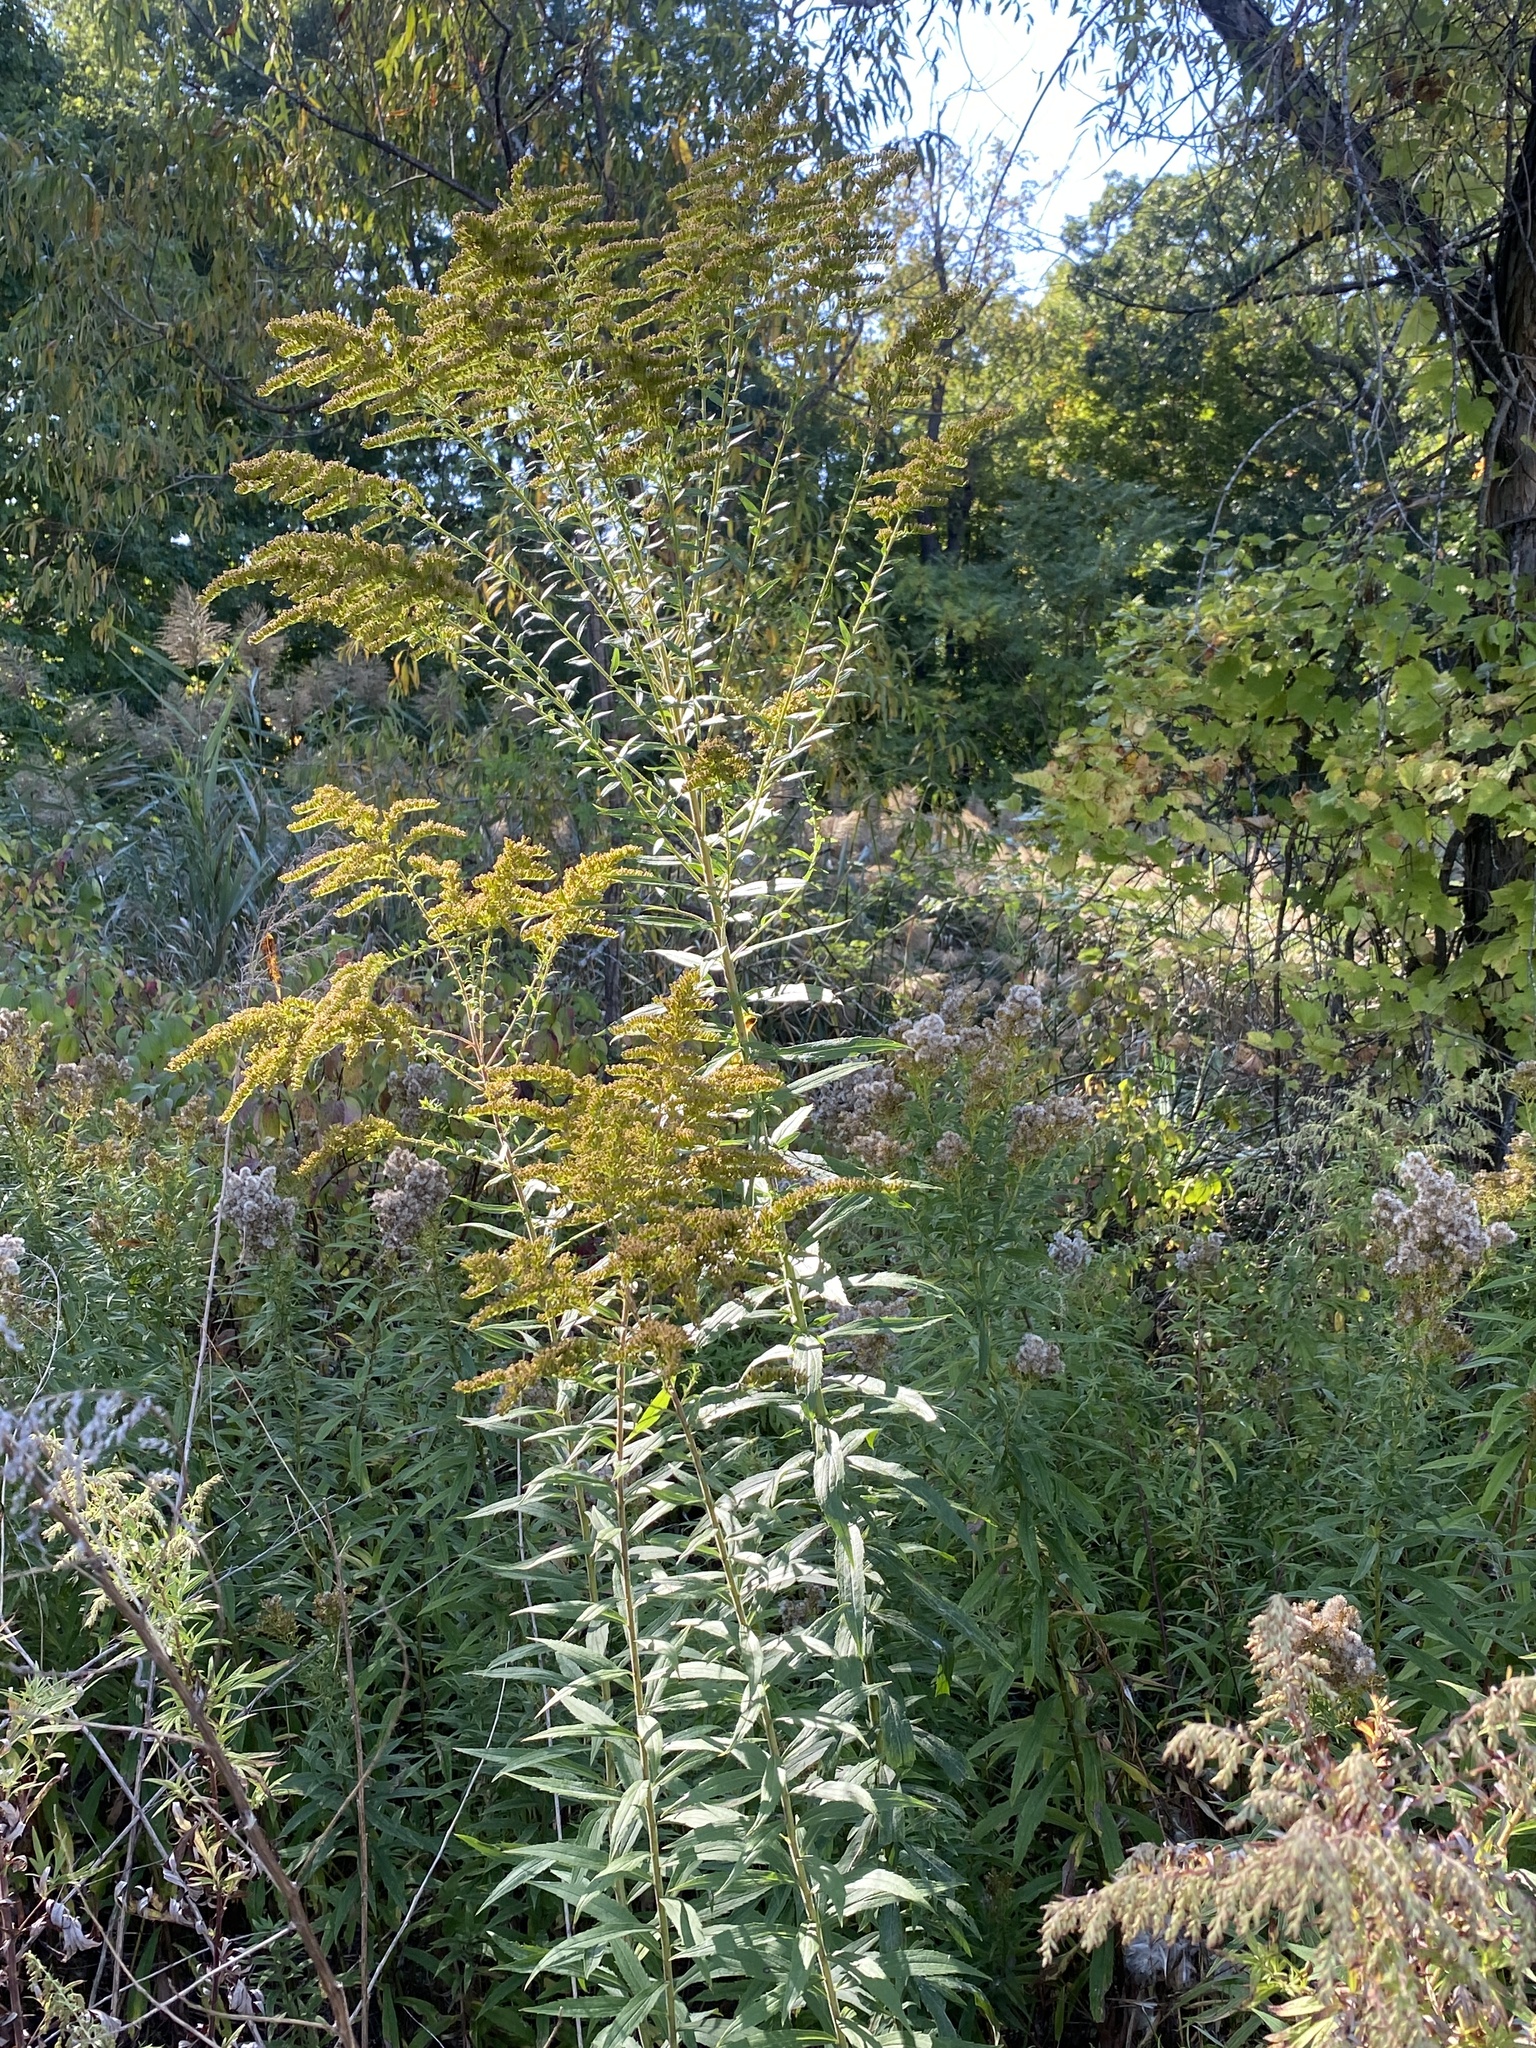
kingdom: Plantae
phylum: Tracheophyta
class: Magnoliopsida
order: Asterales
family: Asteraceae
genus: Solidago
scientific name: Solidago altissima
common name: Late goldenrod
